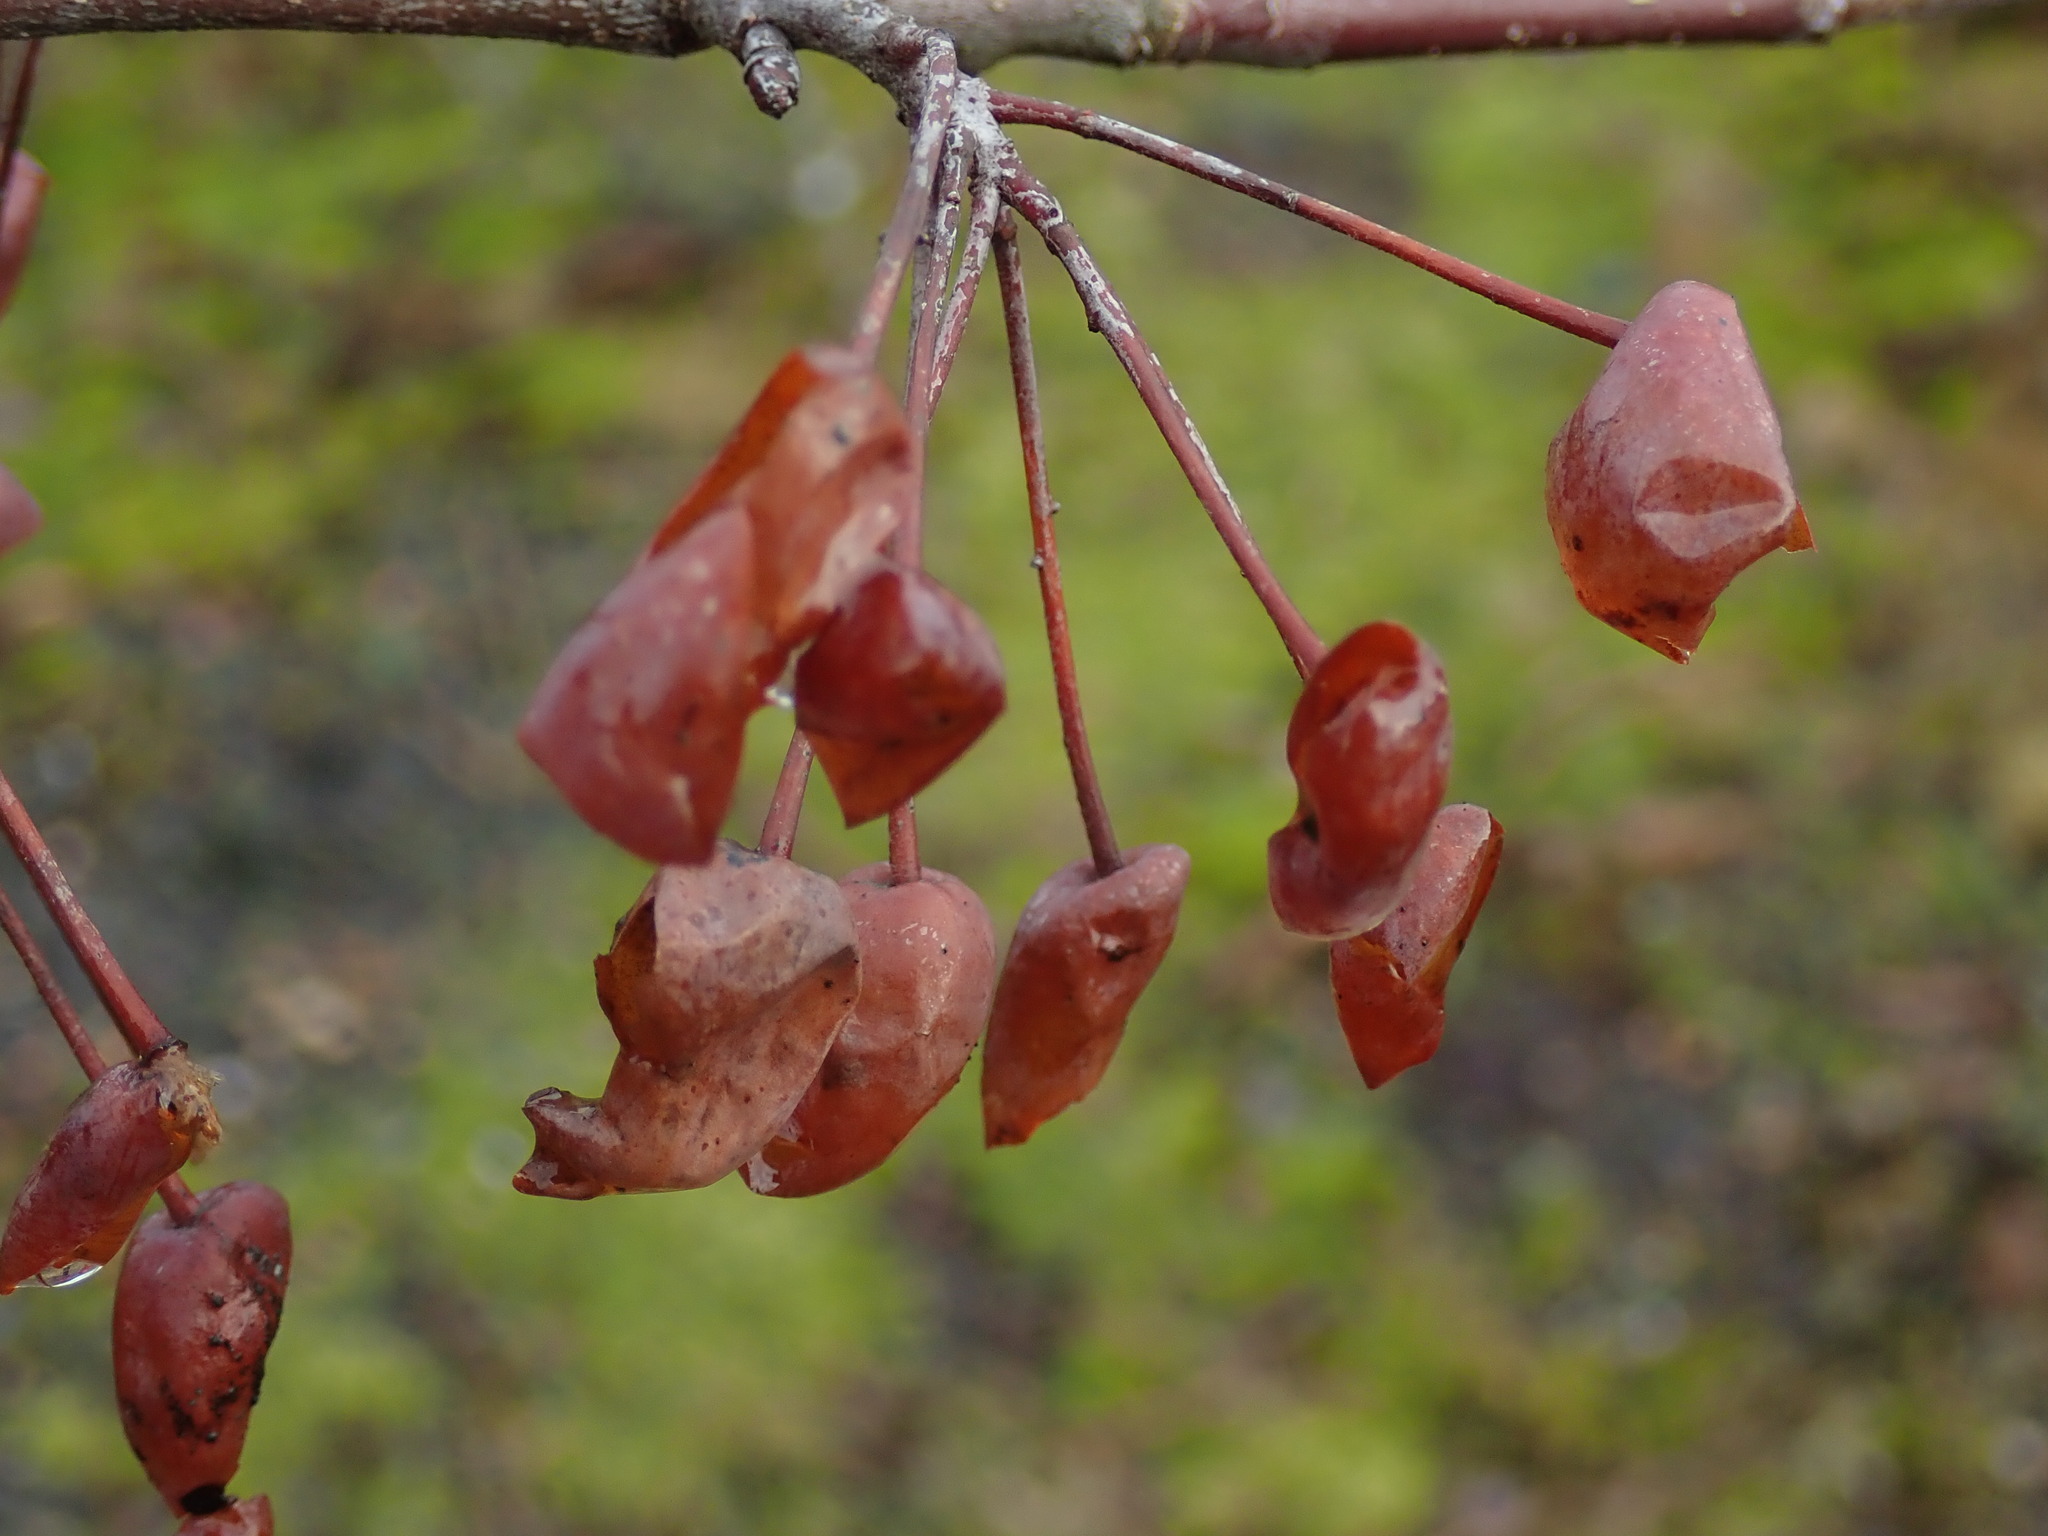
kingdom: Plantae
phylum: Tracheophyta
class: Magnoliopsida
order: Rosales
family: Rosaceae
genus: Malus
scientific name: Malus fusca
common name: Oregon crab apple
